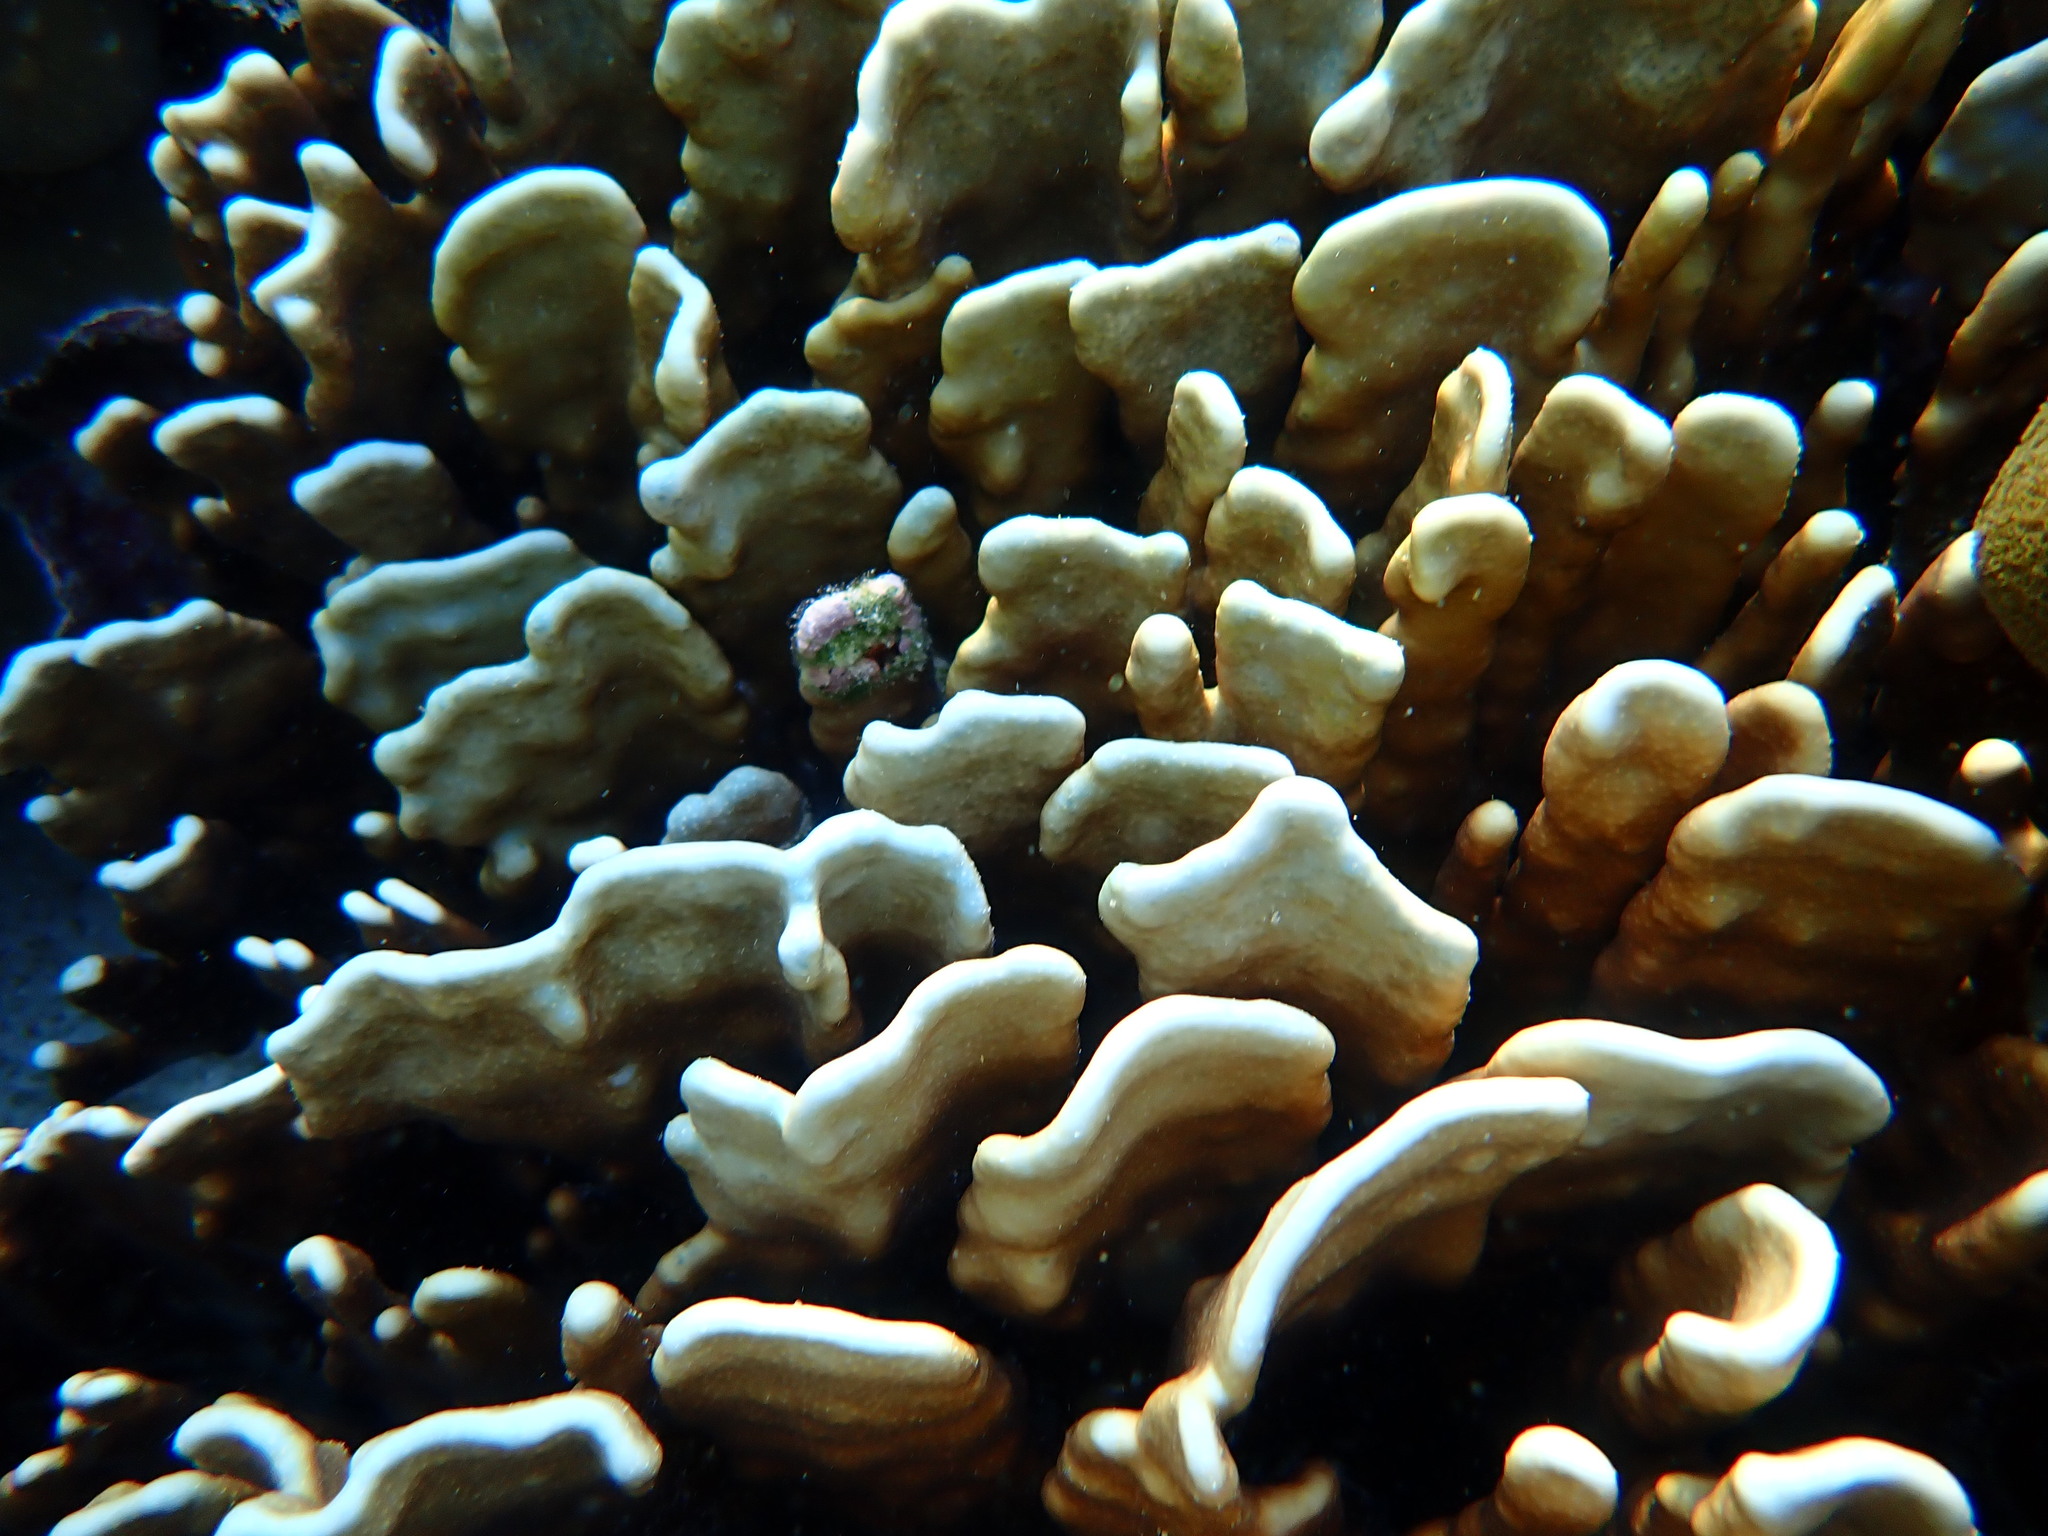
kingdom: Animalia
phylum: Cnidaria
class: Anthozoa
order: Scleralcyonacea
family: Helioporidae
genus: Heliopora
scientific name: Heliopora coerulea
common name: Blue coral
